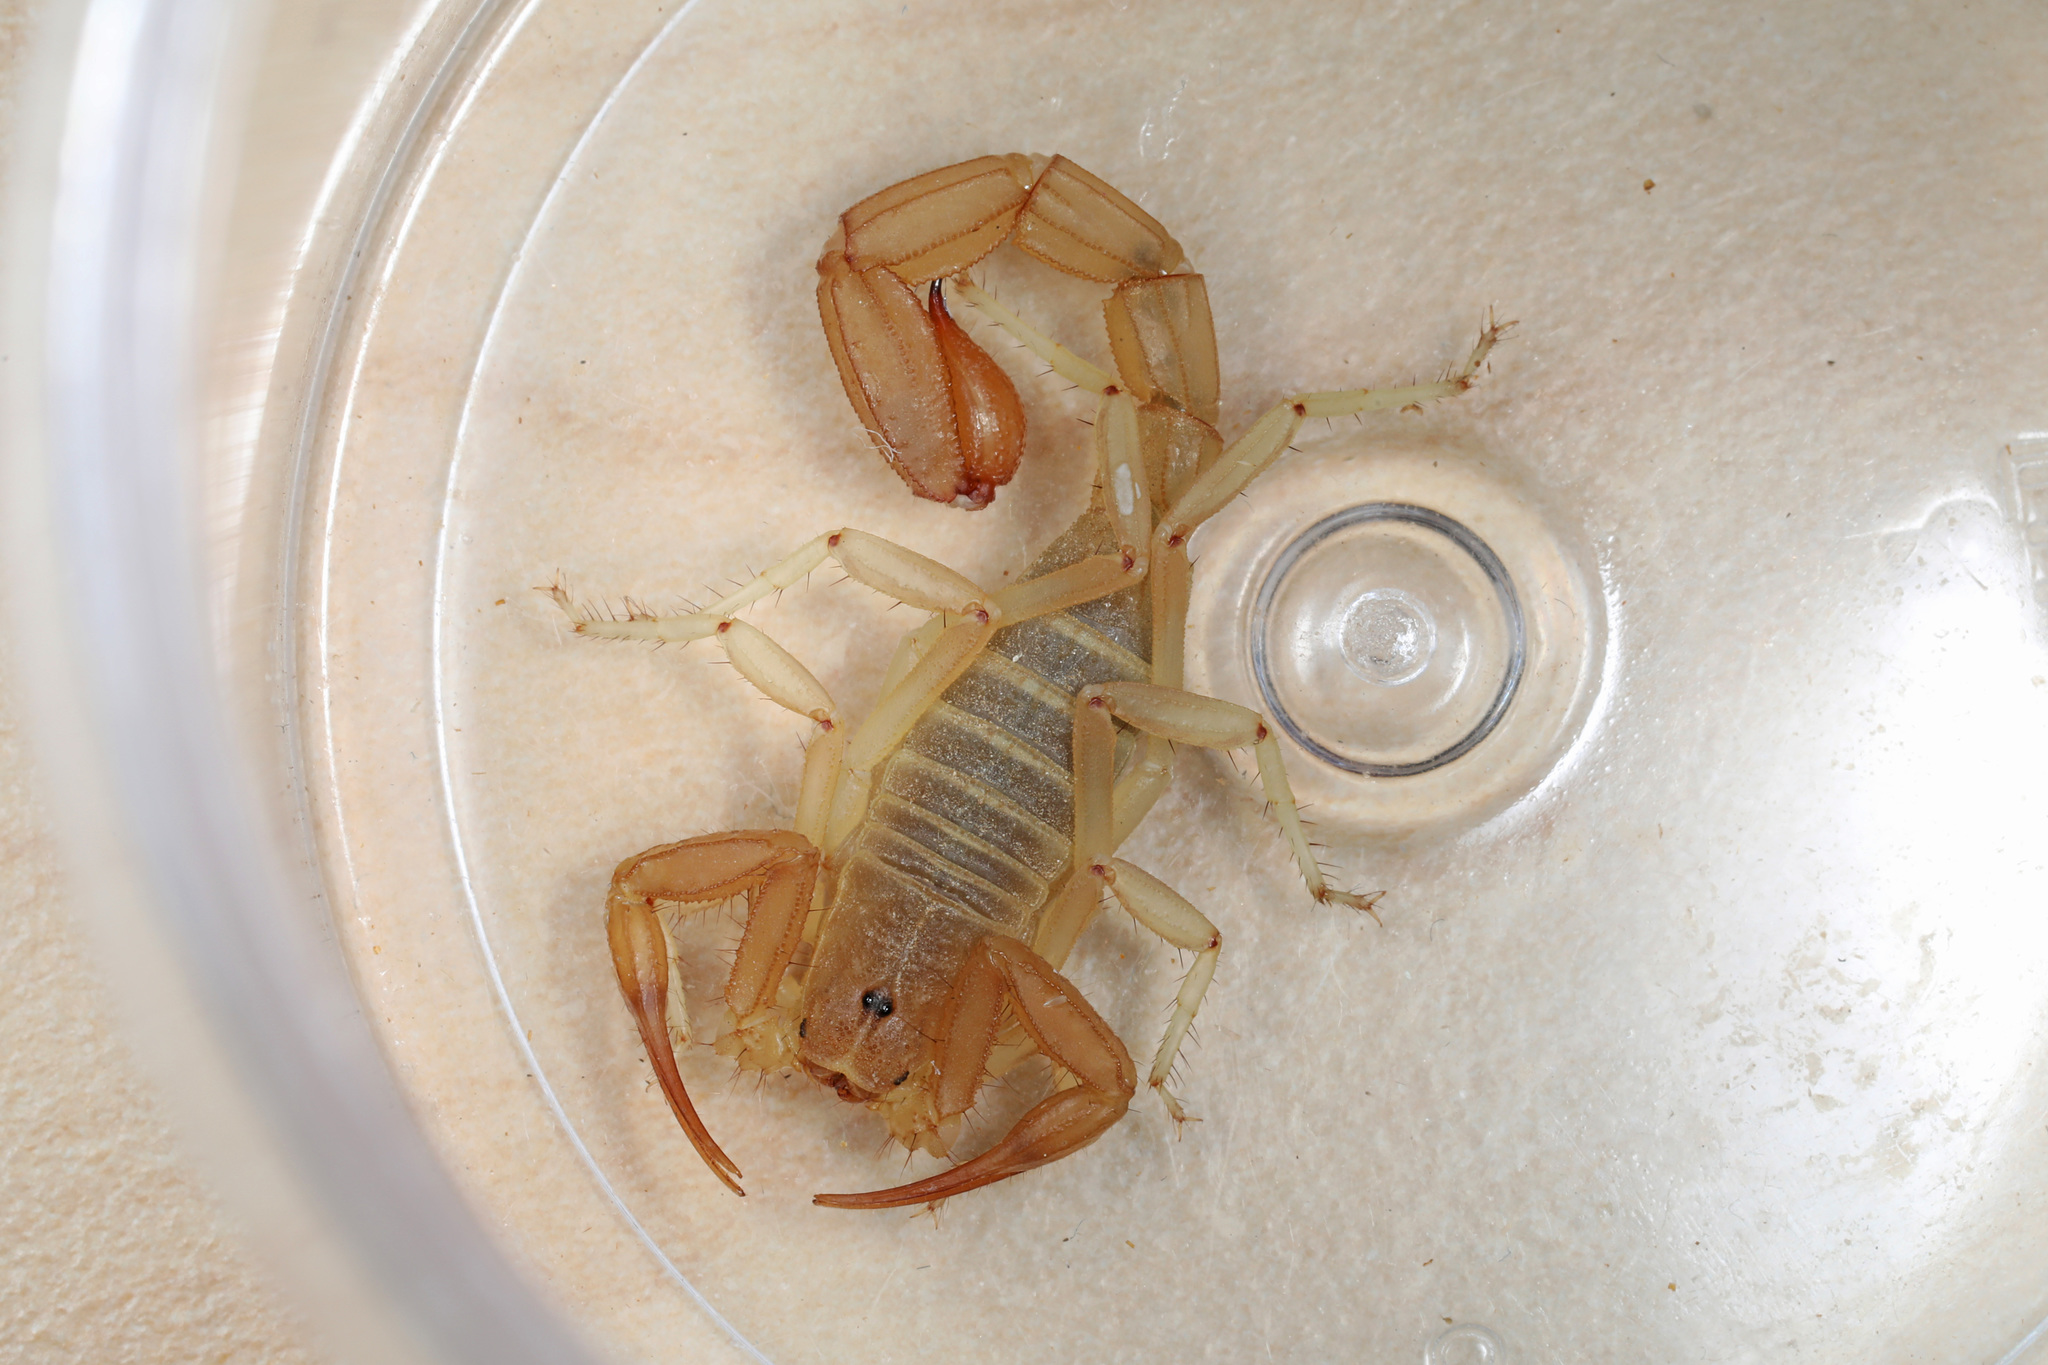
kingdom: Animalia
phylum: Arthropoda
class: Arachnida
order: Scorpiones
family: Vaejovidae
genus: Paravaejovis
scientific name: Paravaejovis waeringi
